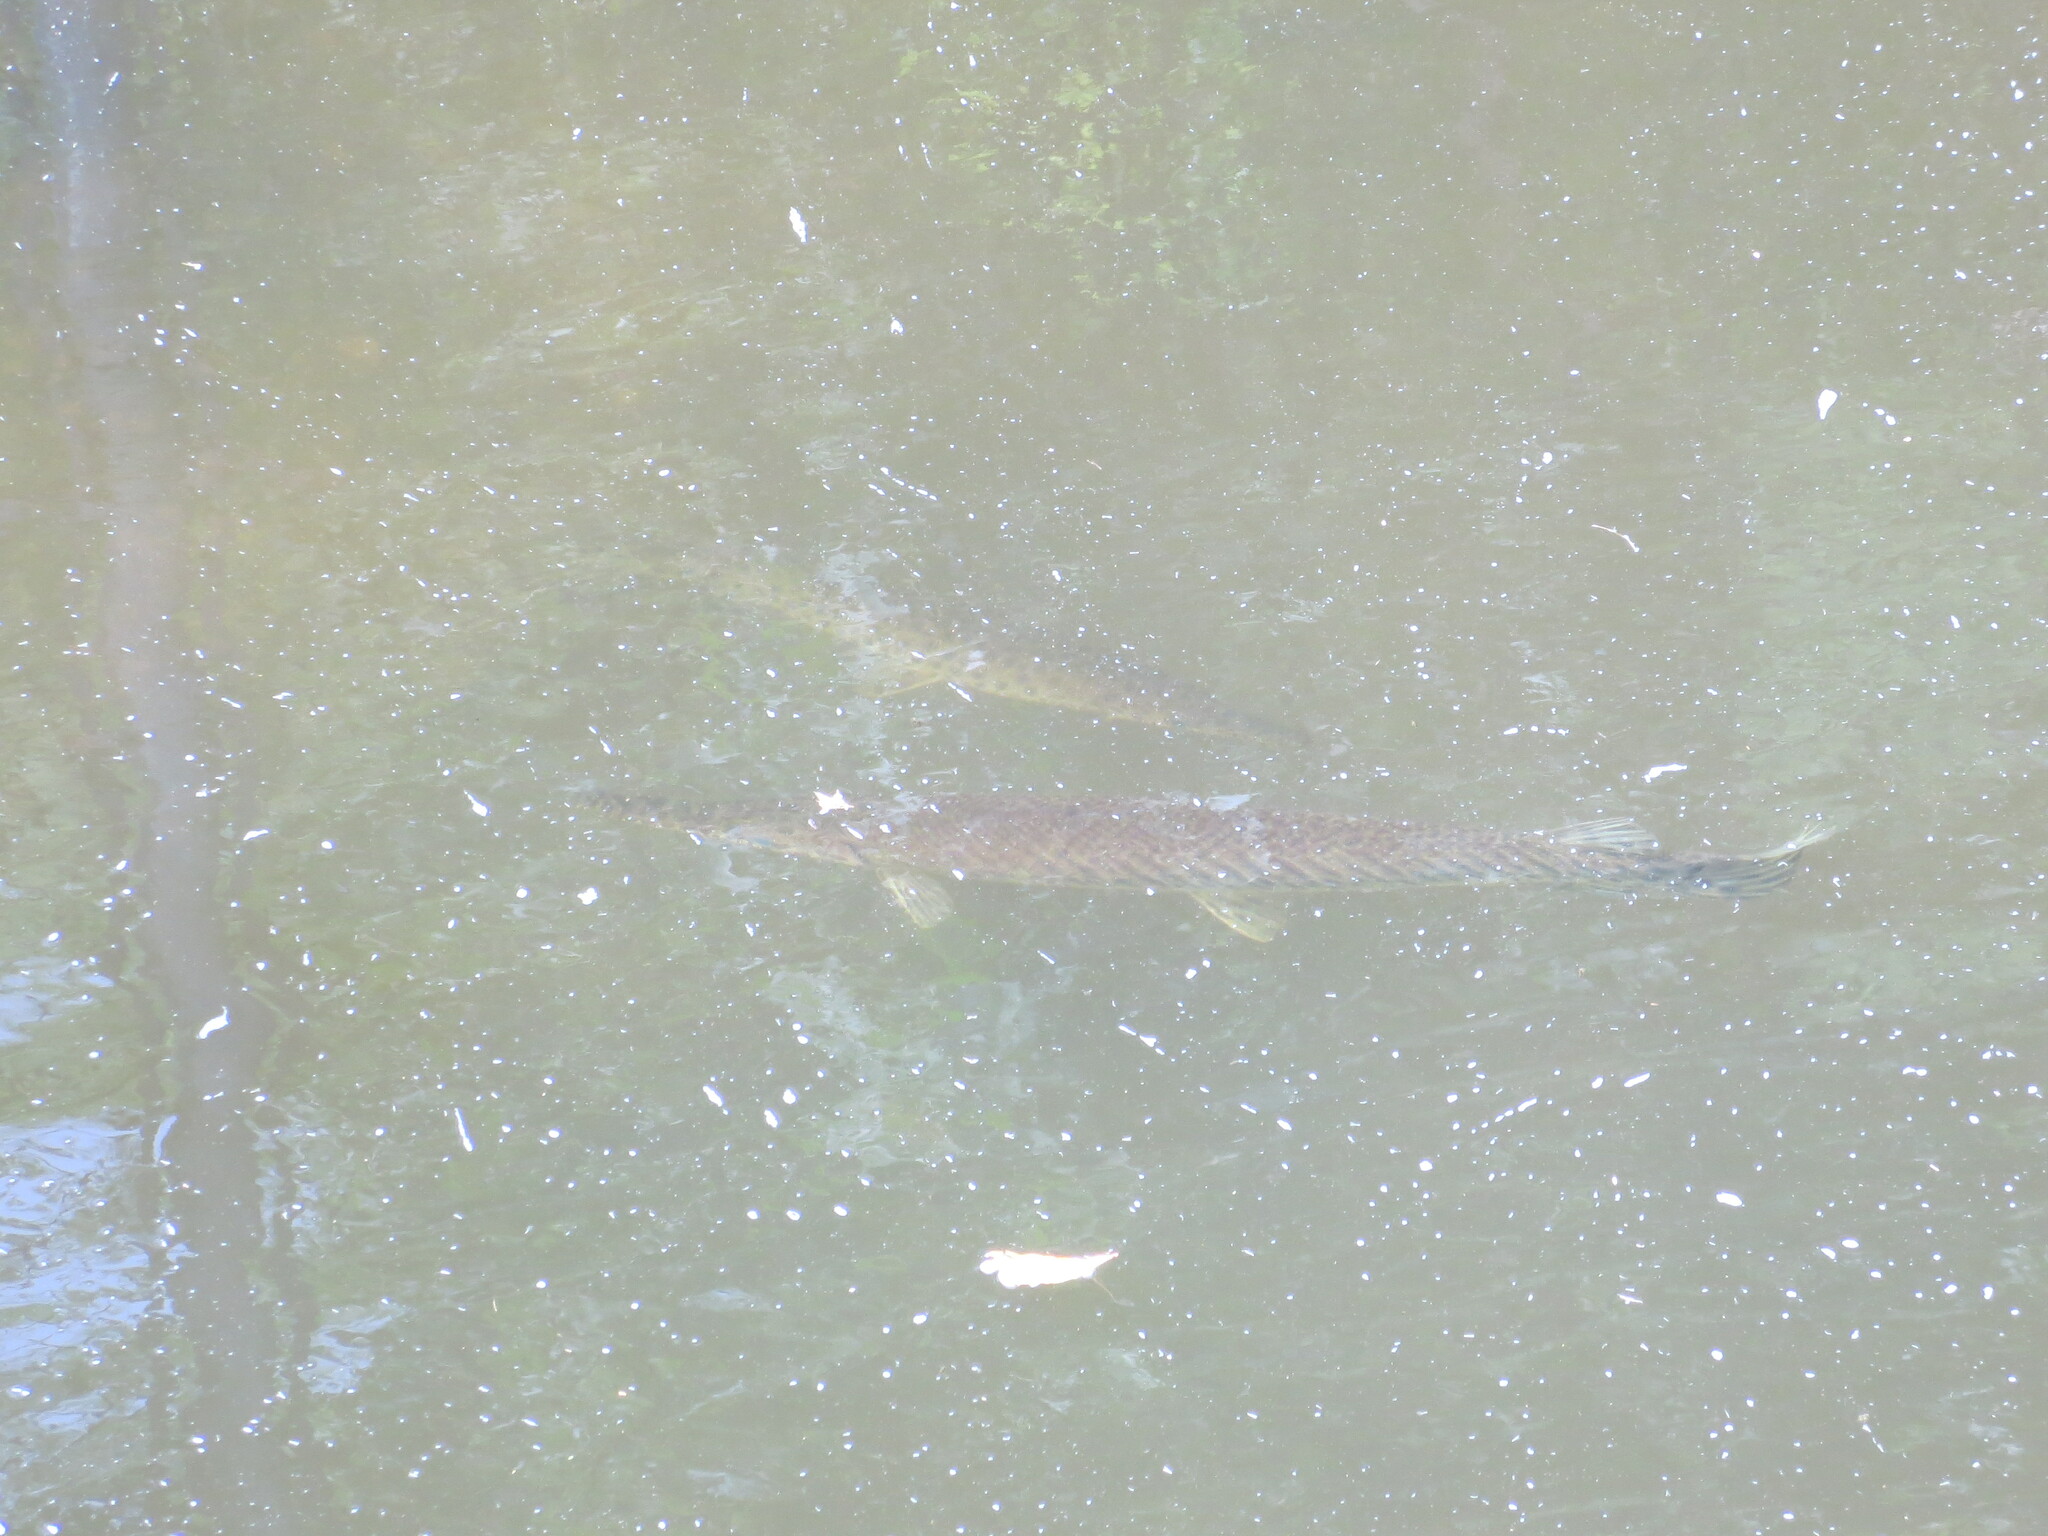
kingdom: Animalia
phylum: Chordata
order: Lepisosteiformes
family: Lepisosteidae
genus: Lepisosteus
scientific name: Lepisosteus platyrhincus
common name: Florida gar
